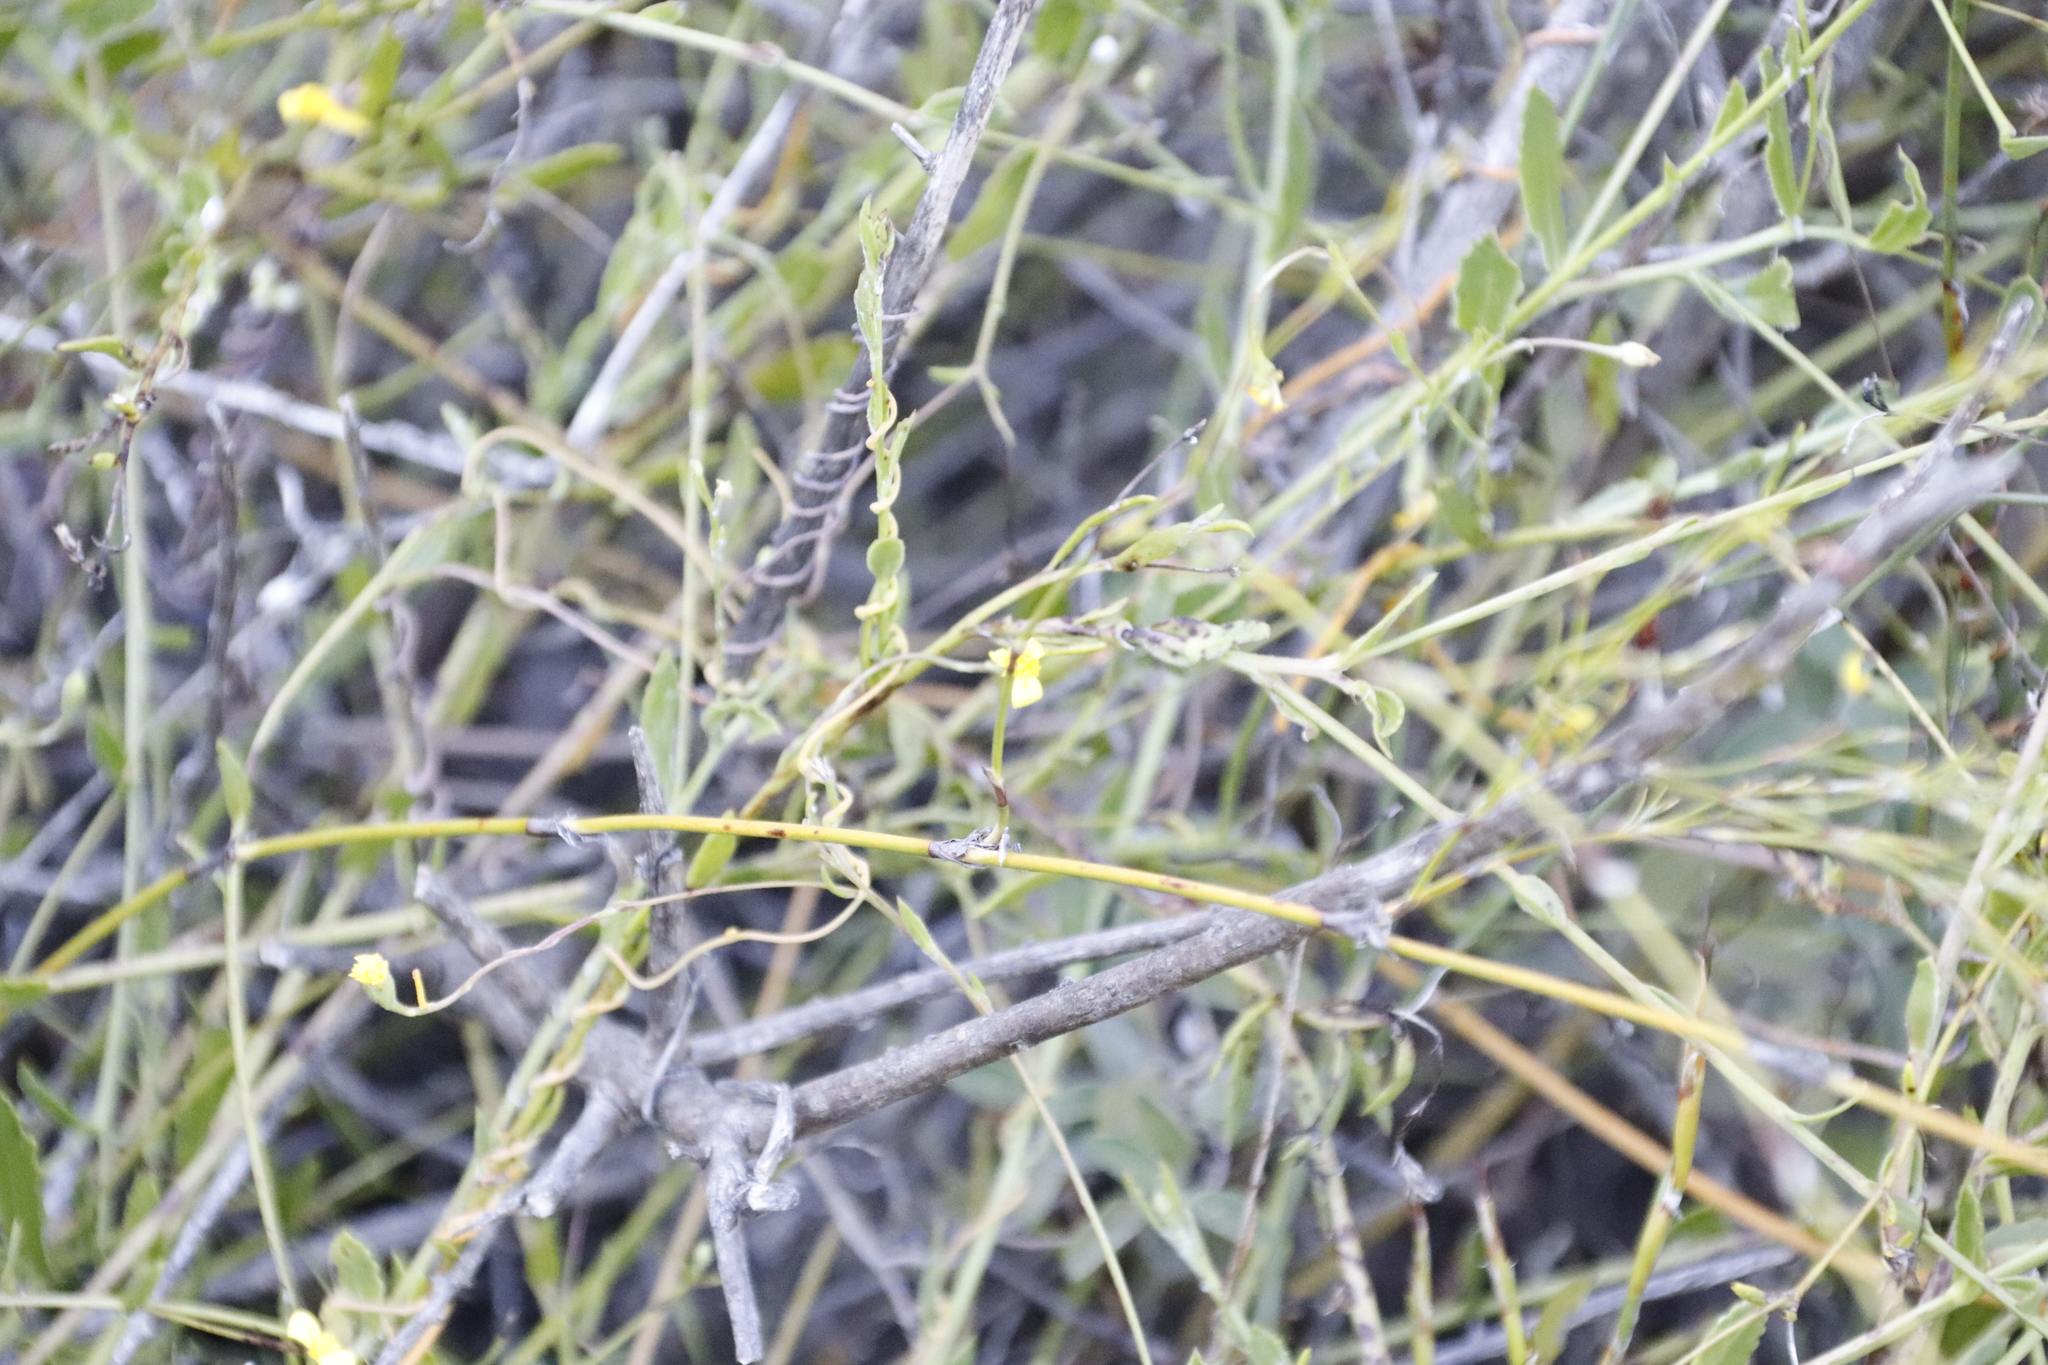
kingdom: Plantae
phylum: Tracheophyta
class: Magnoliopsida
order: Asterales
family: Asteraceae
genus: Osteospermum
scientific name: Osteospermum ciliatum
